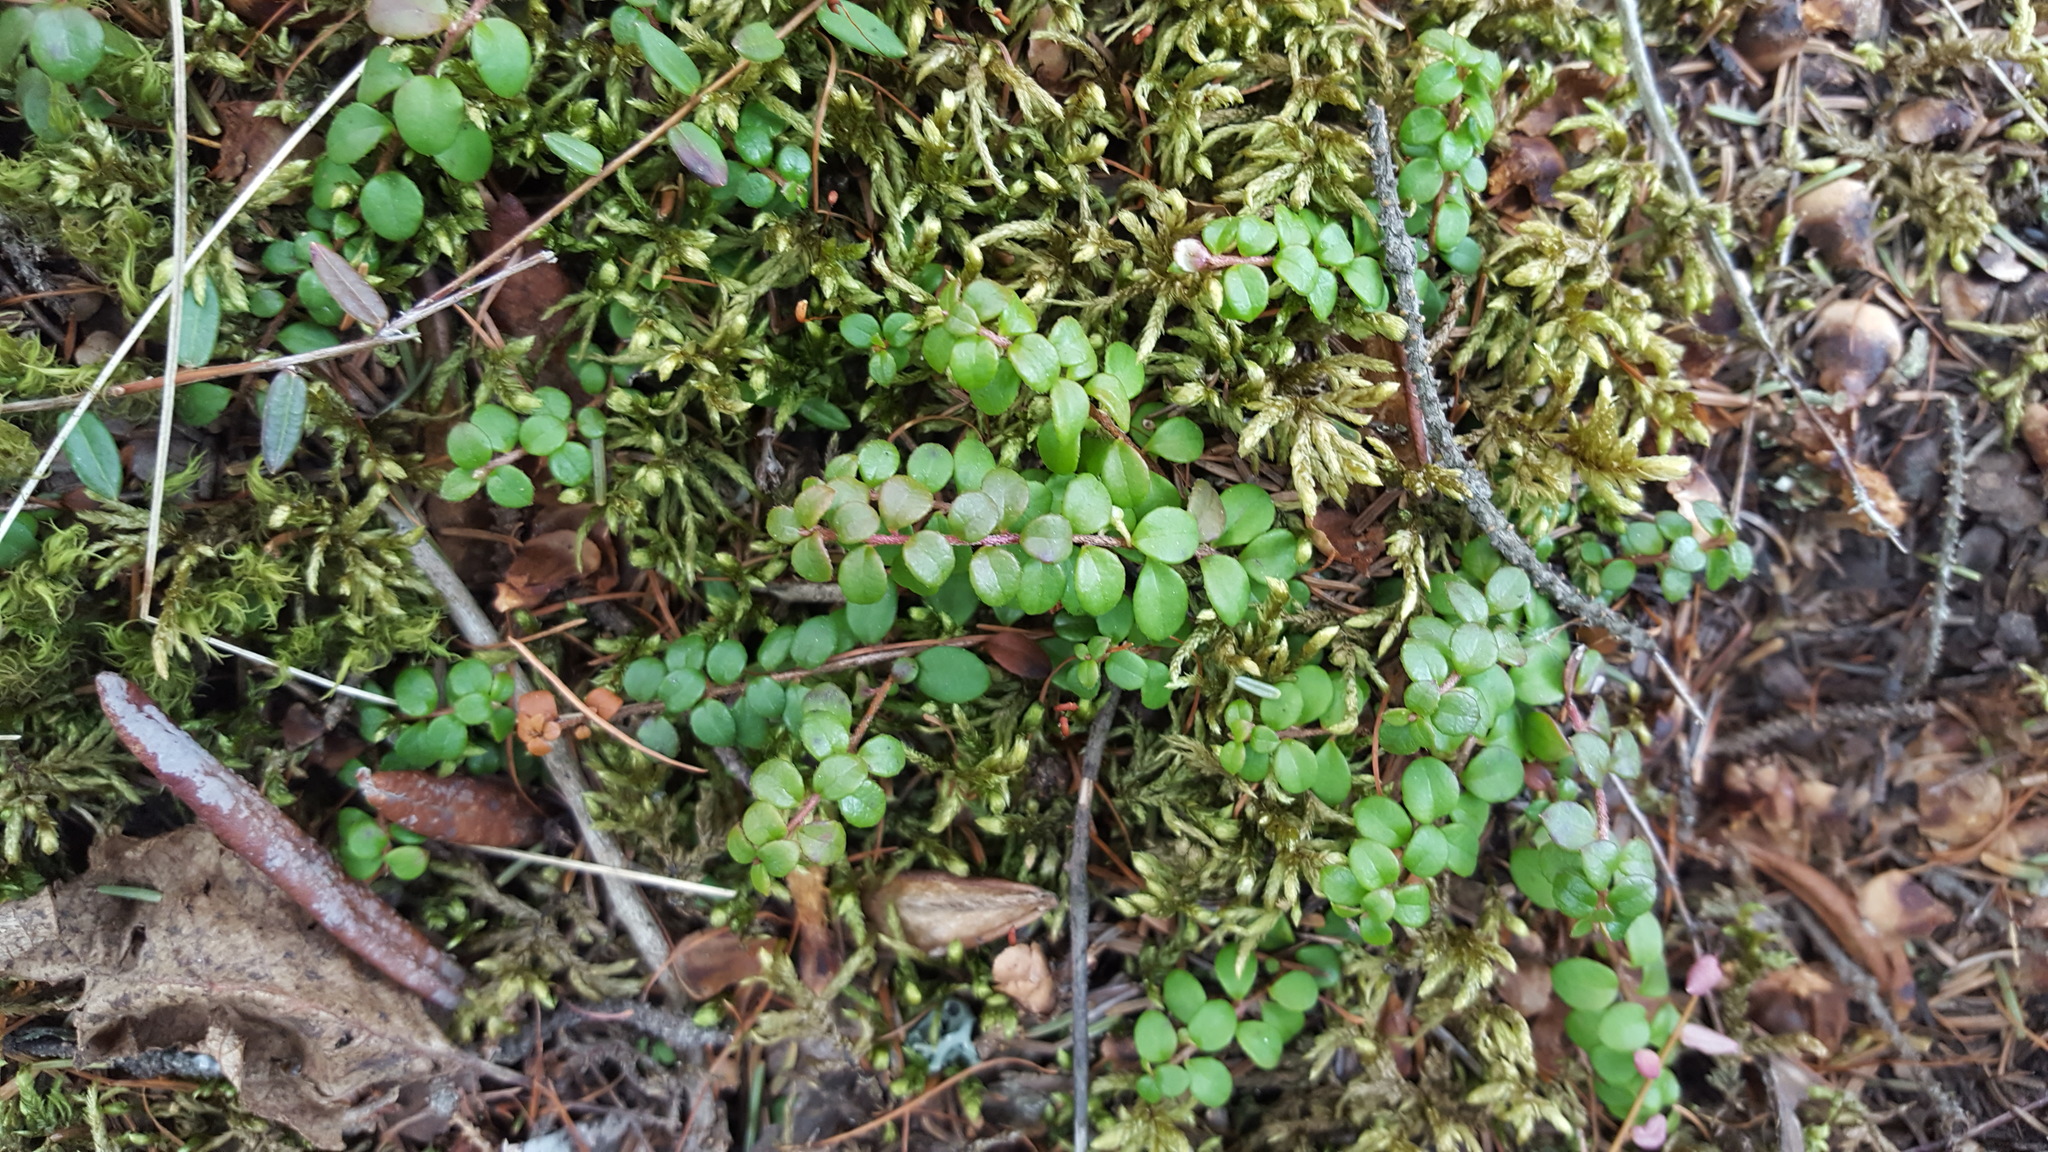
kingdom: Plantae
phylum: Tracheophyta
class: Magnoliopsida
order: Ericales
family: Ericaceae
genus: Gaultheria
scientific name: Gaultheria hispidula
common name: Cancer wintergreen
